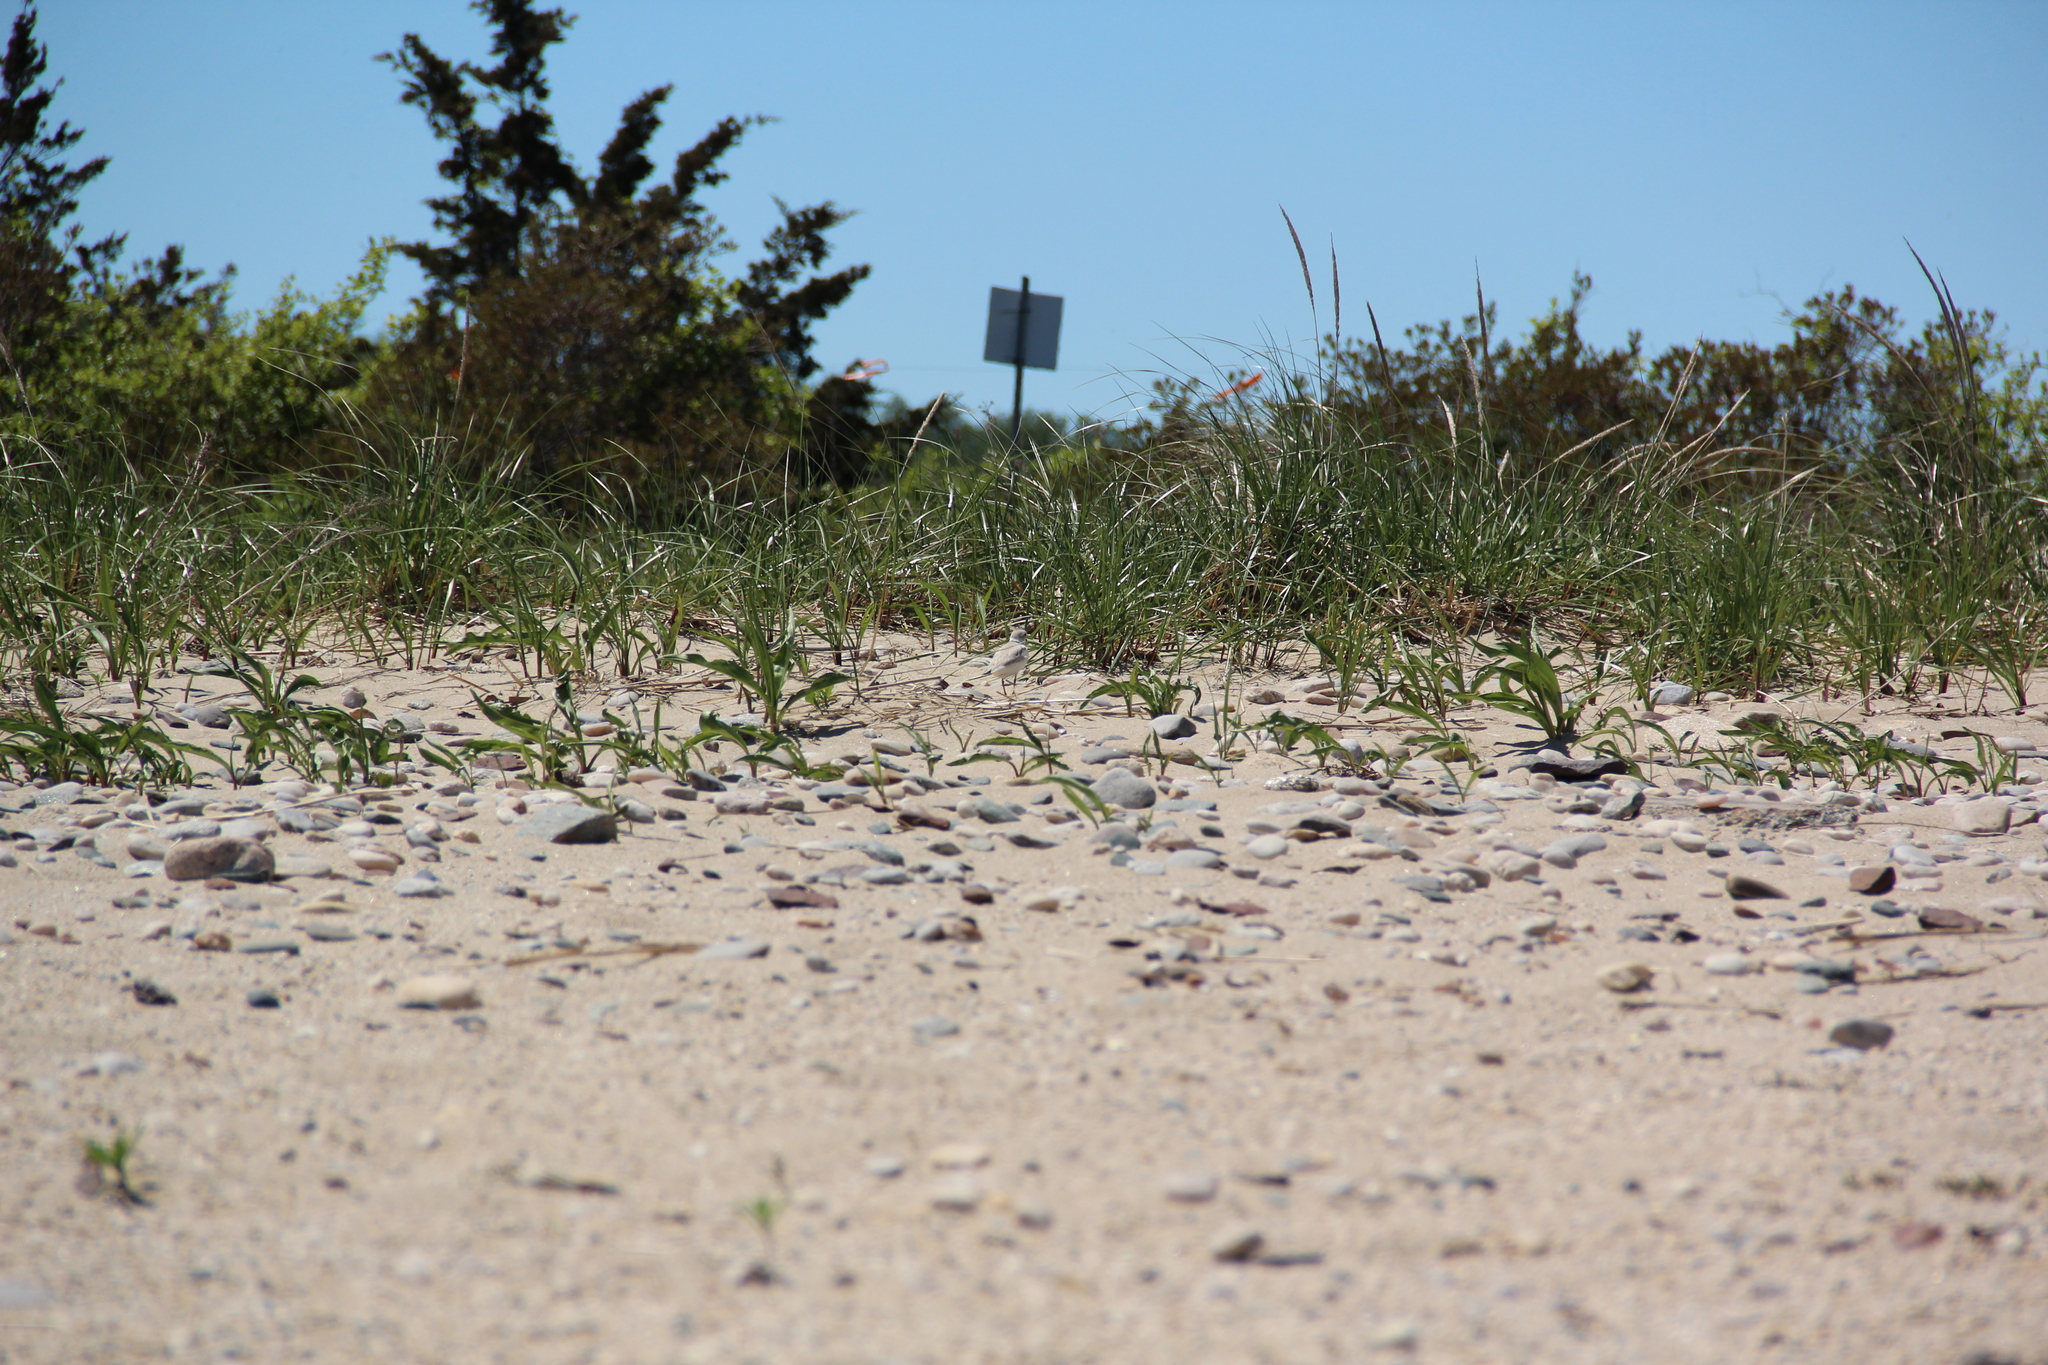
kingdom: Animalia
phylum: Chordata
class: Aves
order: Charadriiformes
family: Charadriidae
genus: Charadrius
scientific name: Charadrius melodus
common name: Piping plover
